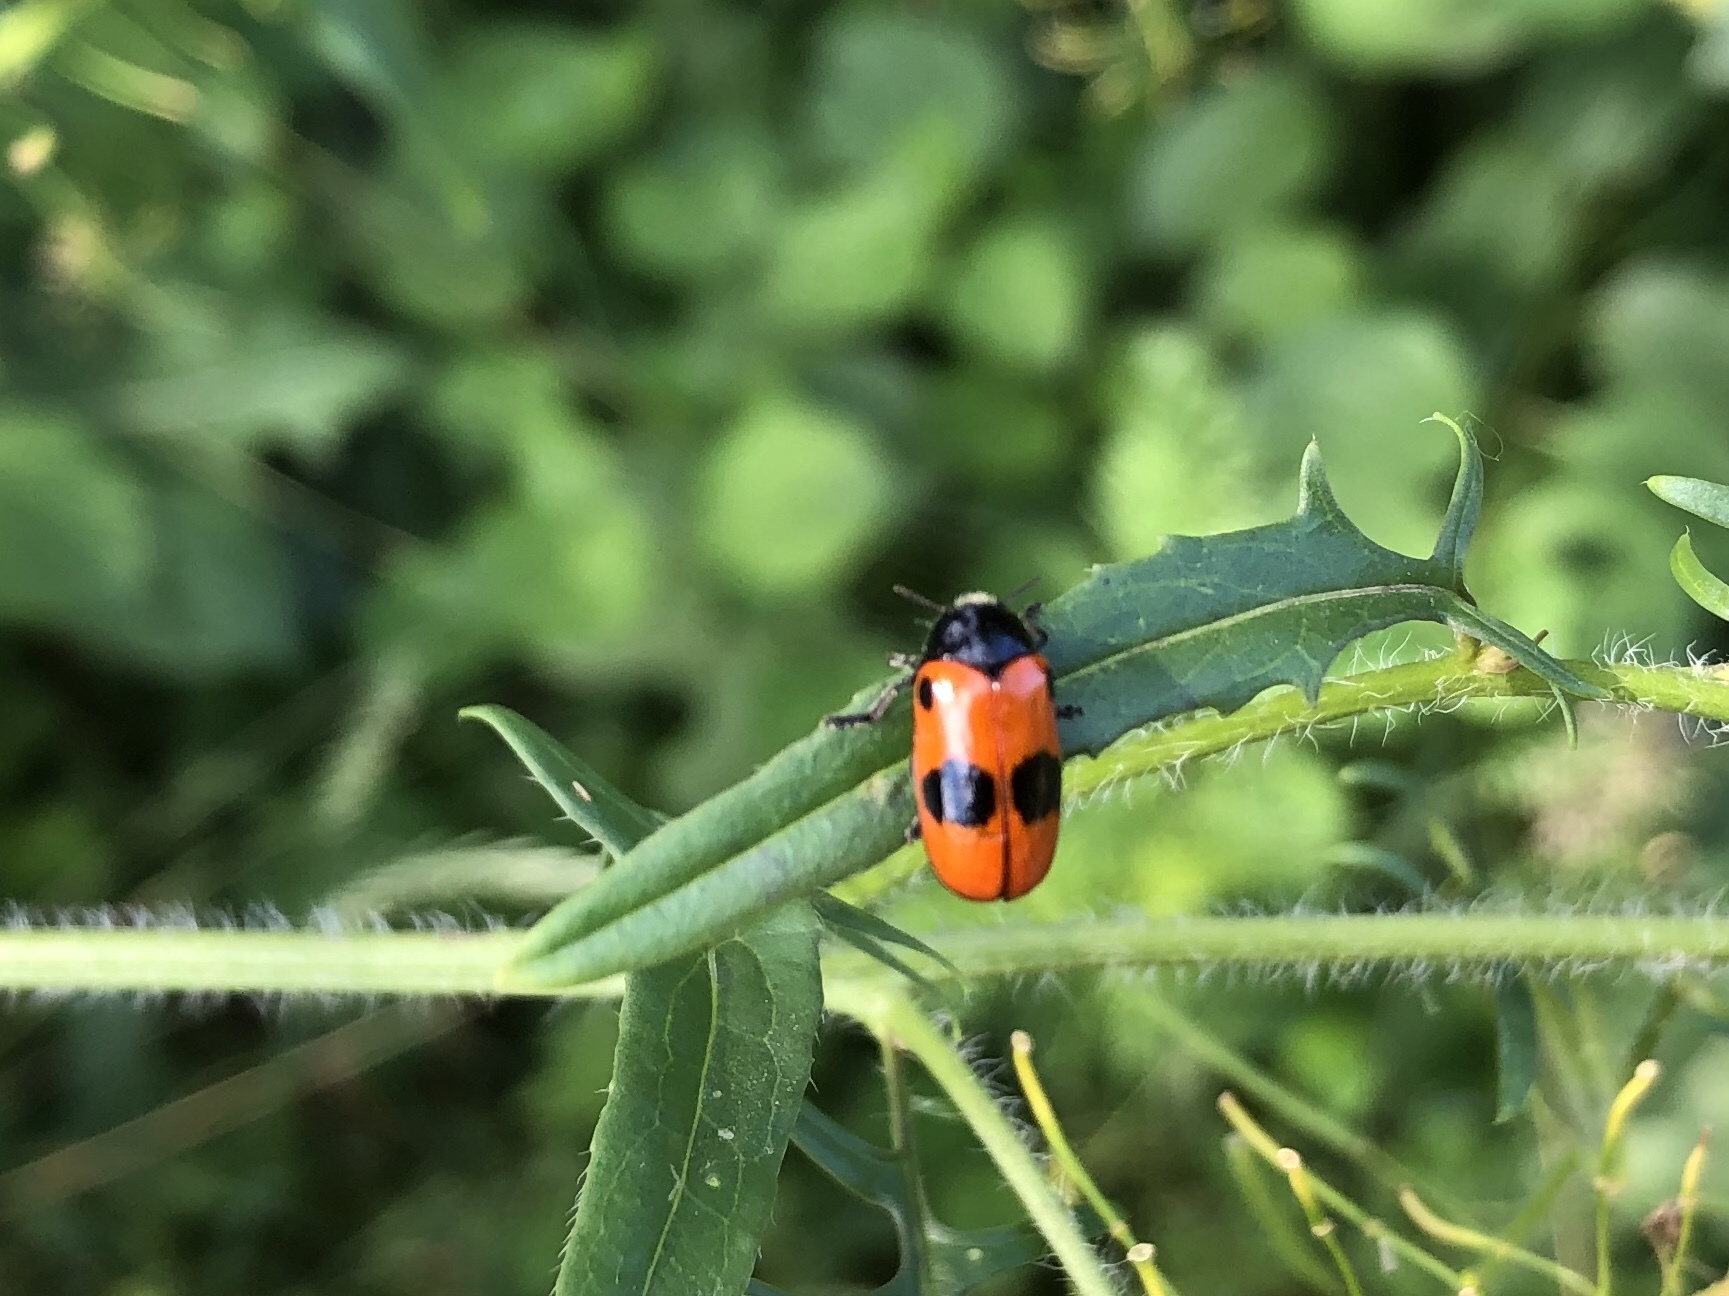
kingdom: Animalia
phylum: Arthropoda
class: Insecta
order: Coleoptera
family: Chrysomelidae
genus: Clytra
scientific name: Clytra laeviuscula
